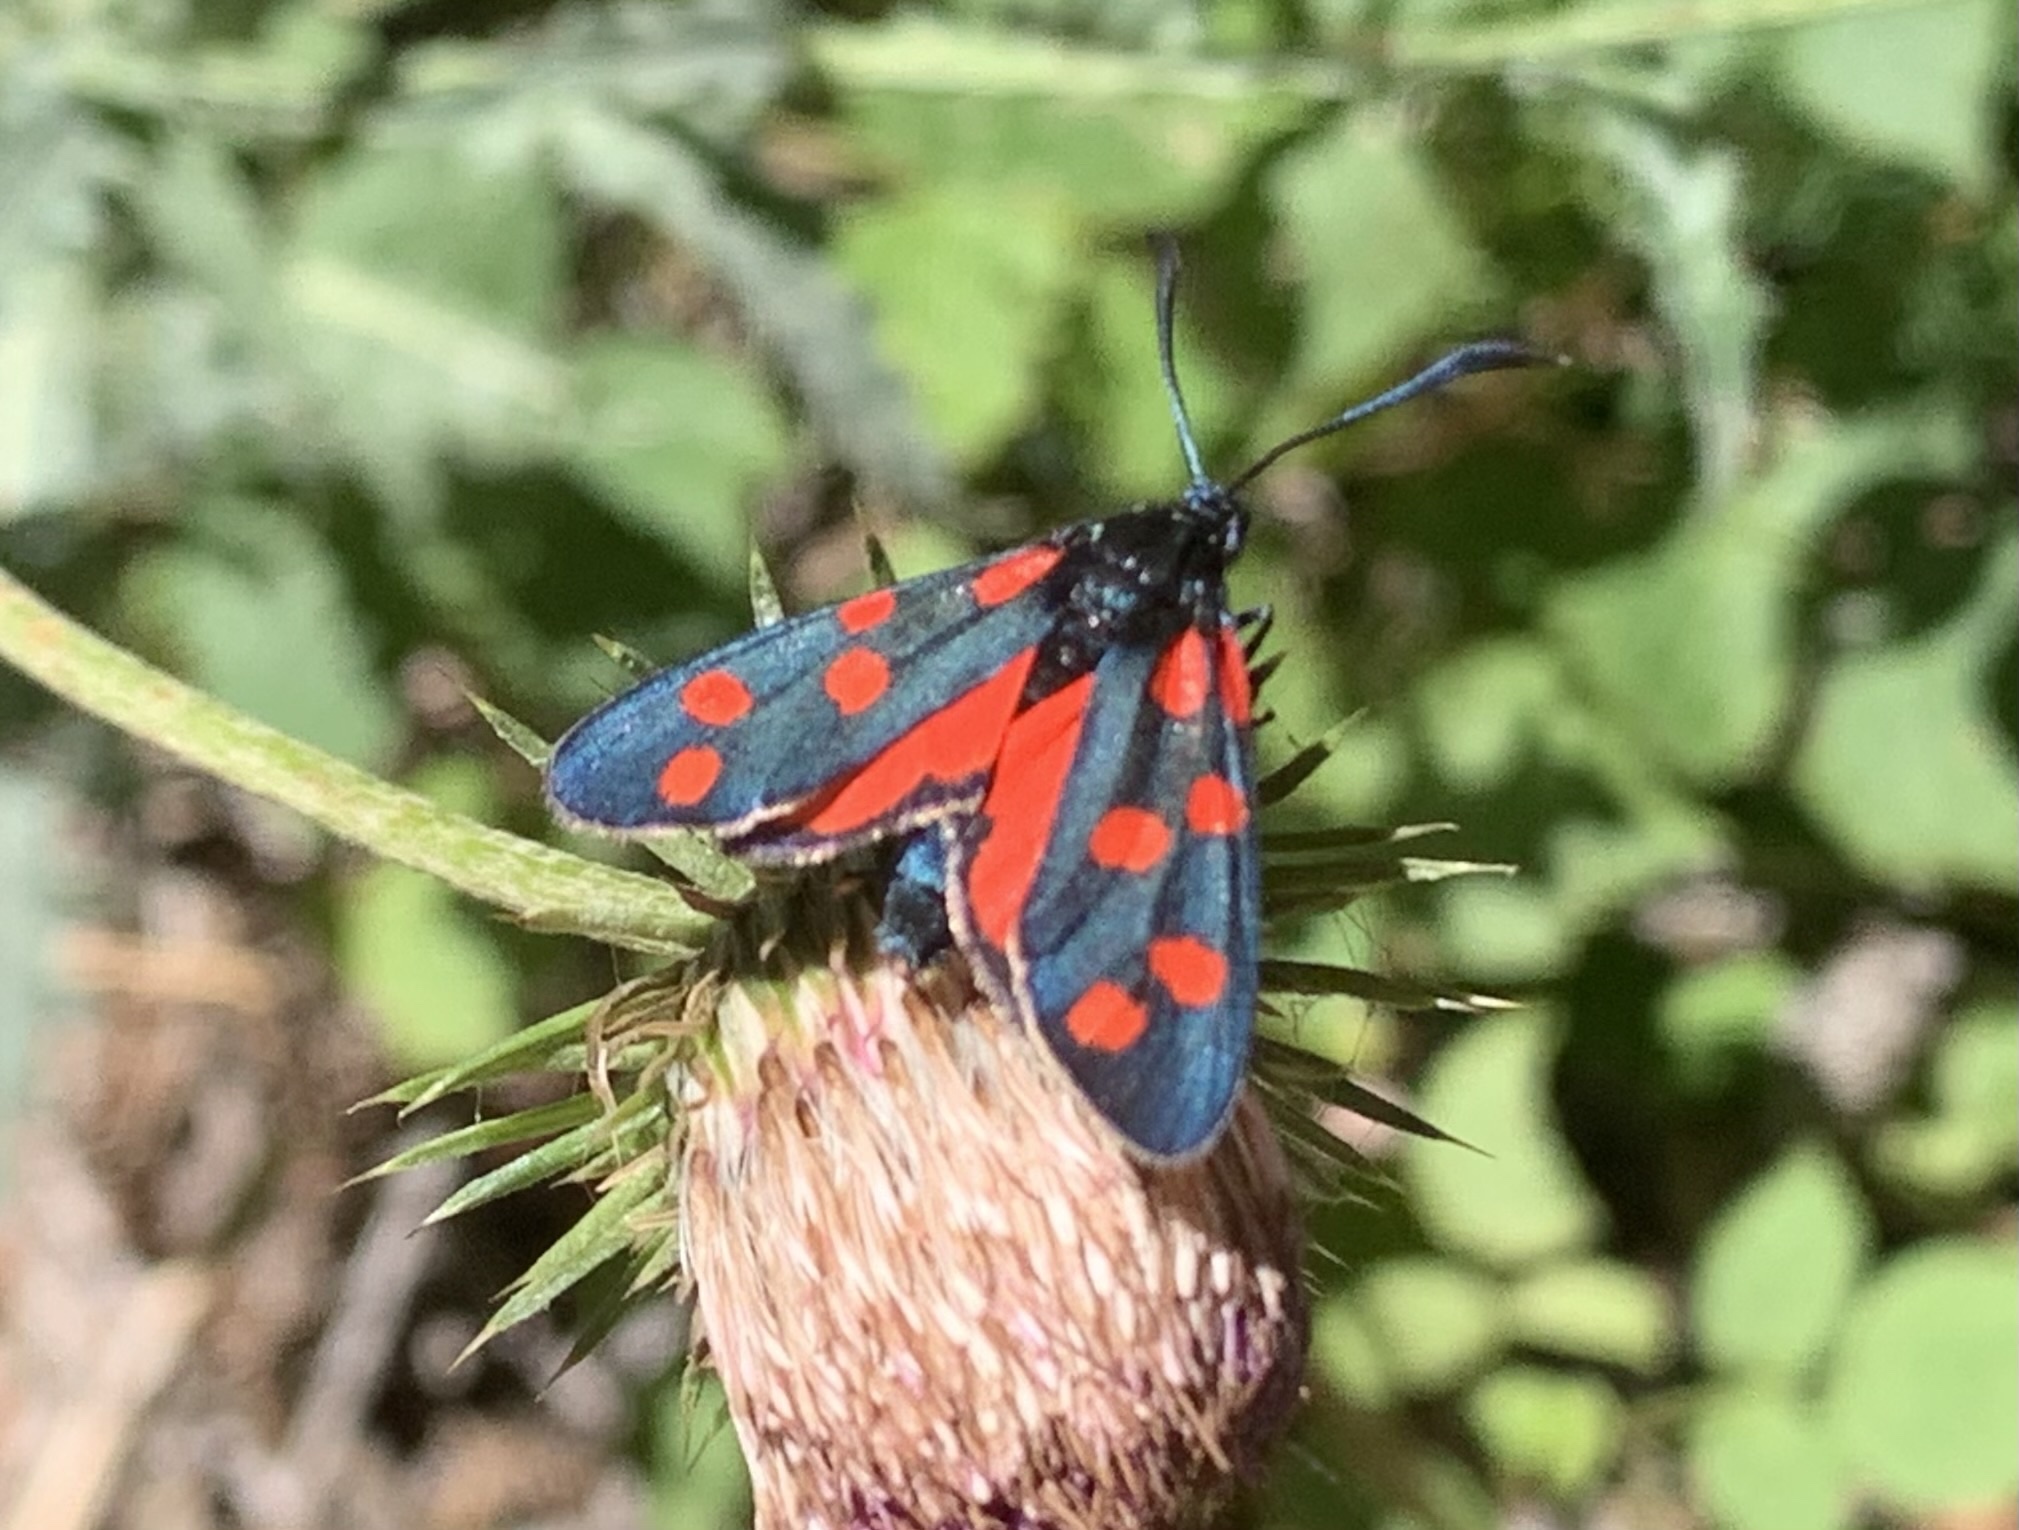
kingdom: Animalia
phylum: Arthropoda
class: Insecta
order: Lepidoptera
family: Zygaenidae
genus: Zygaena
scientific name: Zygaena transalpina
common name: Southern six spot burnet
